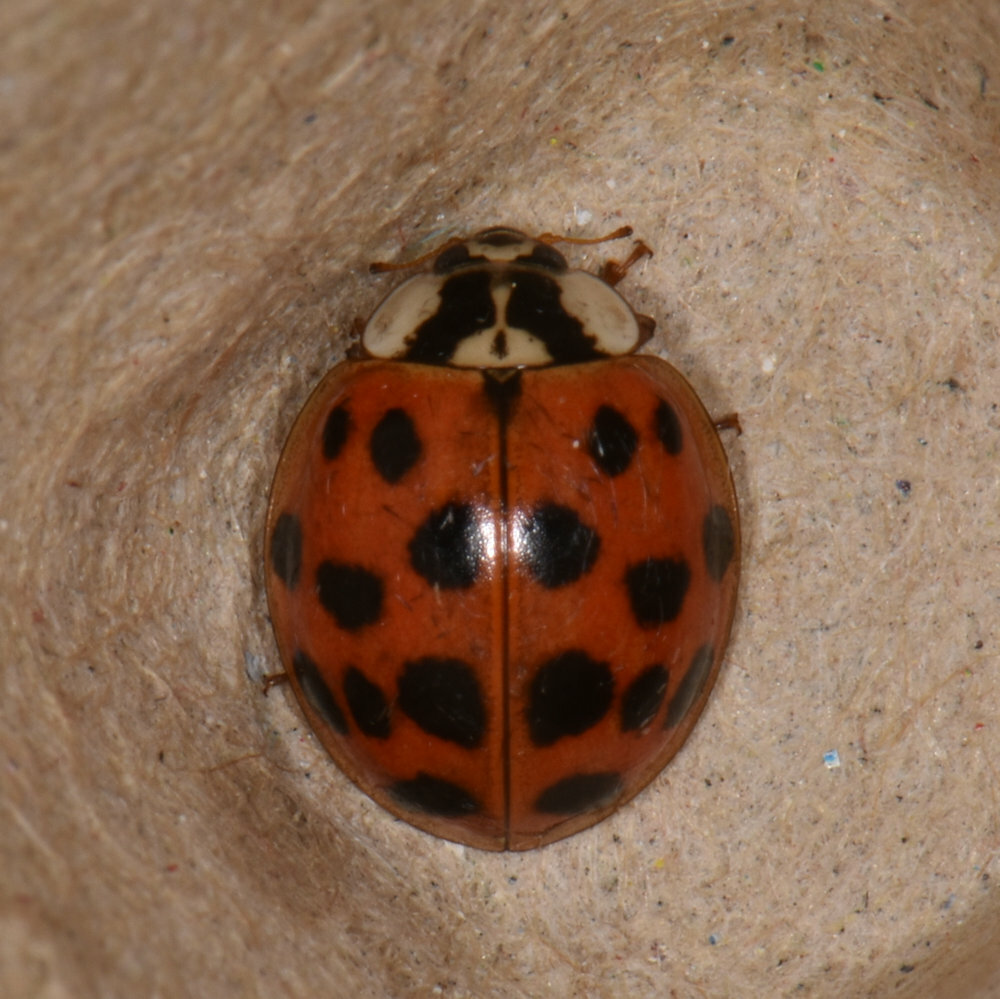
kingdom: Animalia
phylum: Arthropoda
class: Insecta
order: Coleoptera
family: Coccinellidae
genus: Harmonia
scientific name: Harmonia axyridis
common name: Harlequin ladybird
